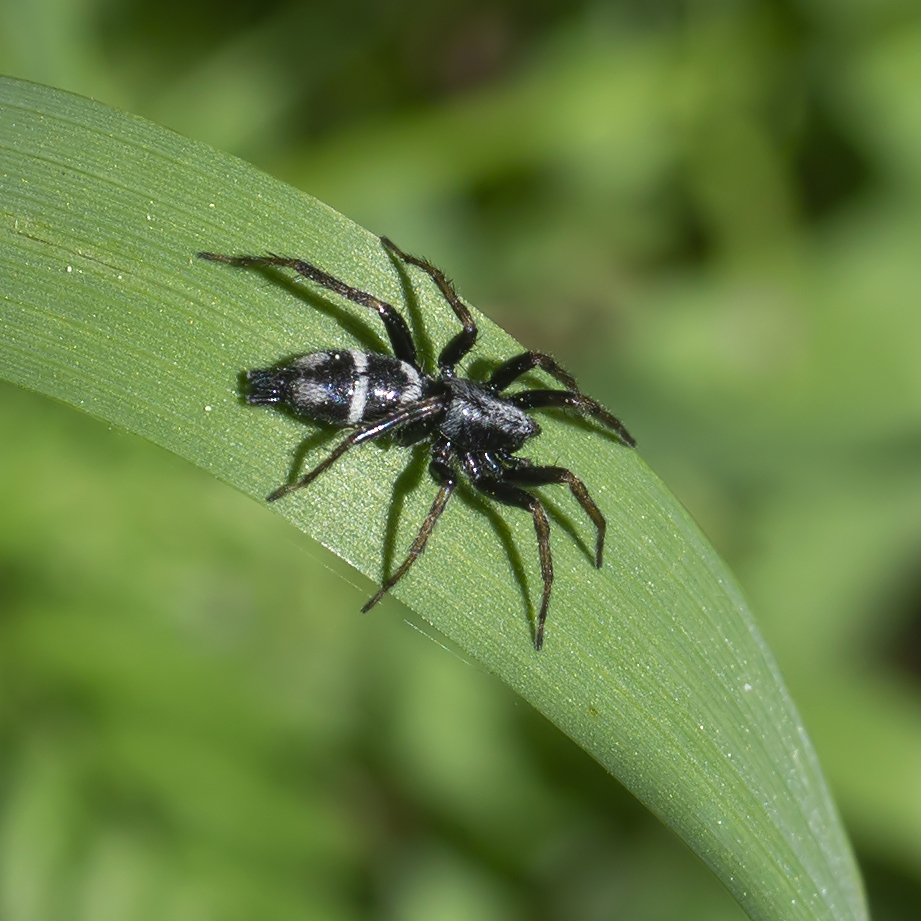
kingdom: Animalia
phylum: Arthropoda
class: Arachnida
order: Araneae
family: Gnaphosidae
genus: Aphantaulax
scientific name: Aphantaulax trifasciata
